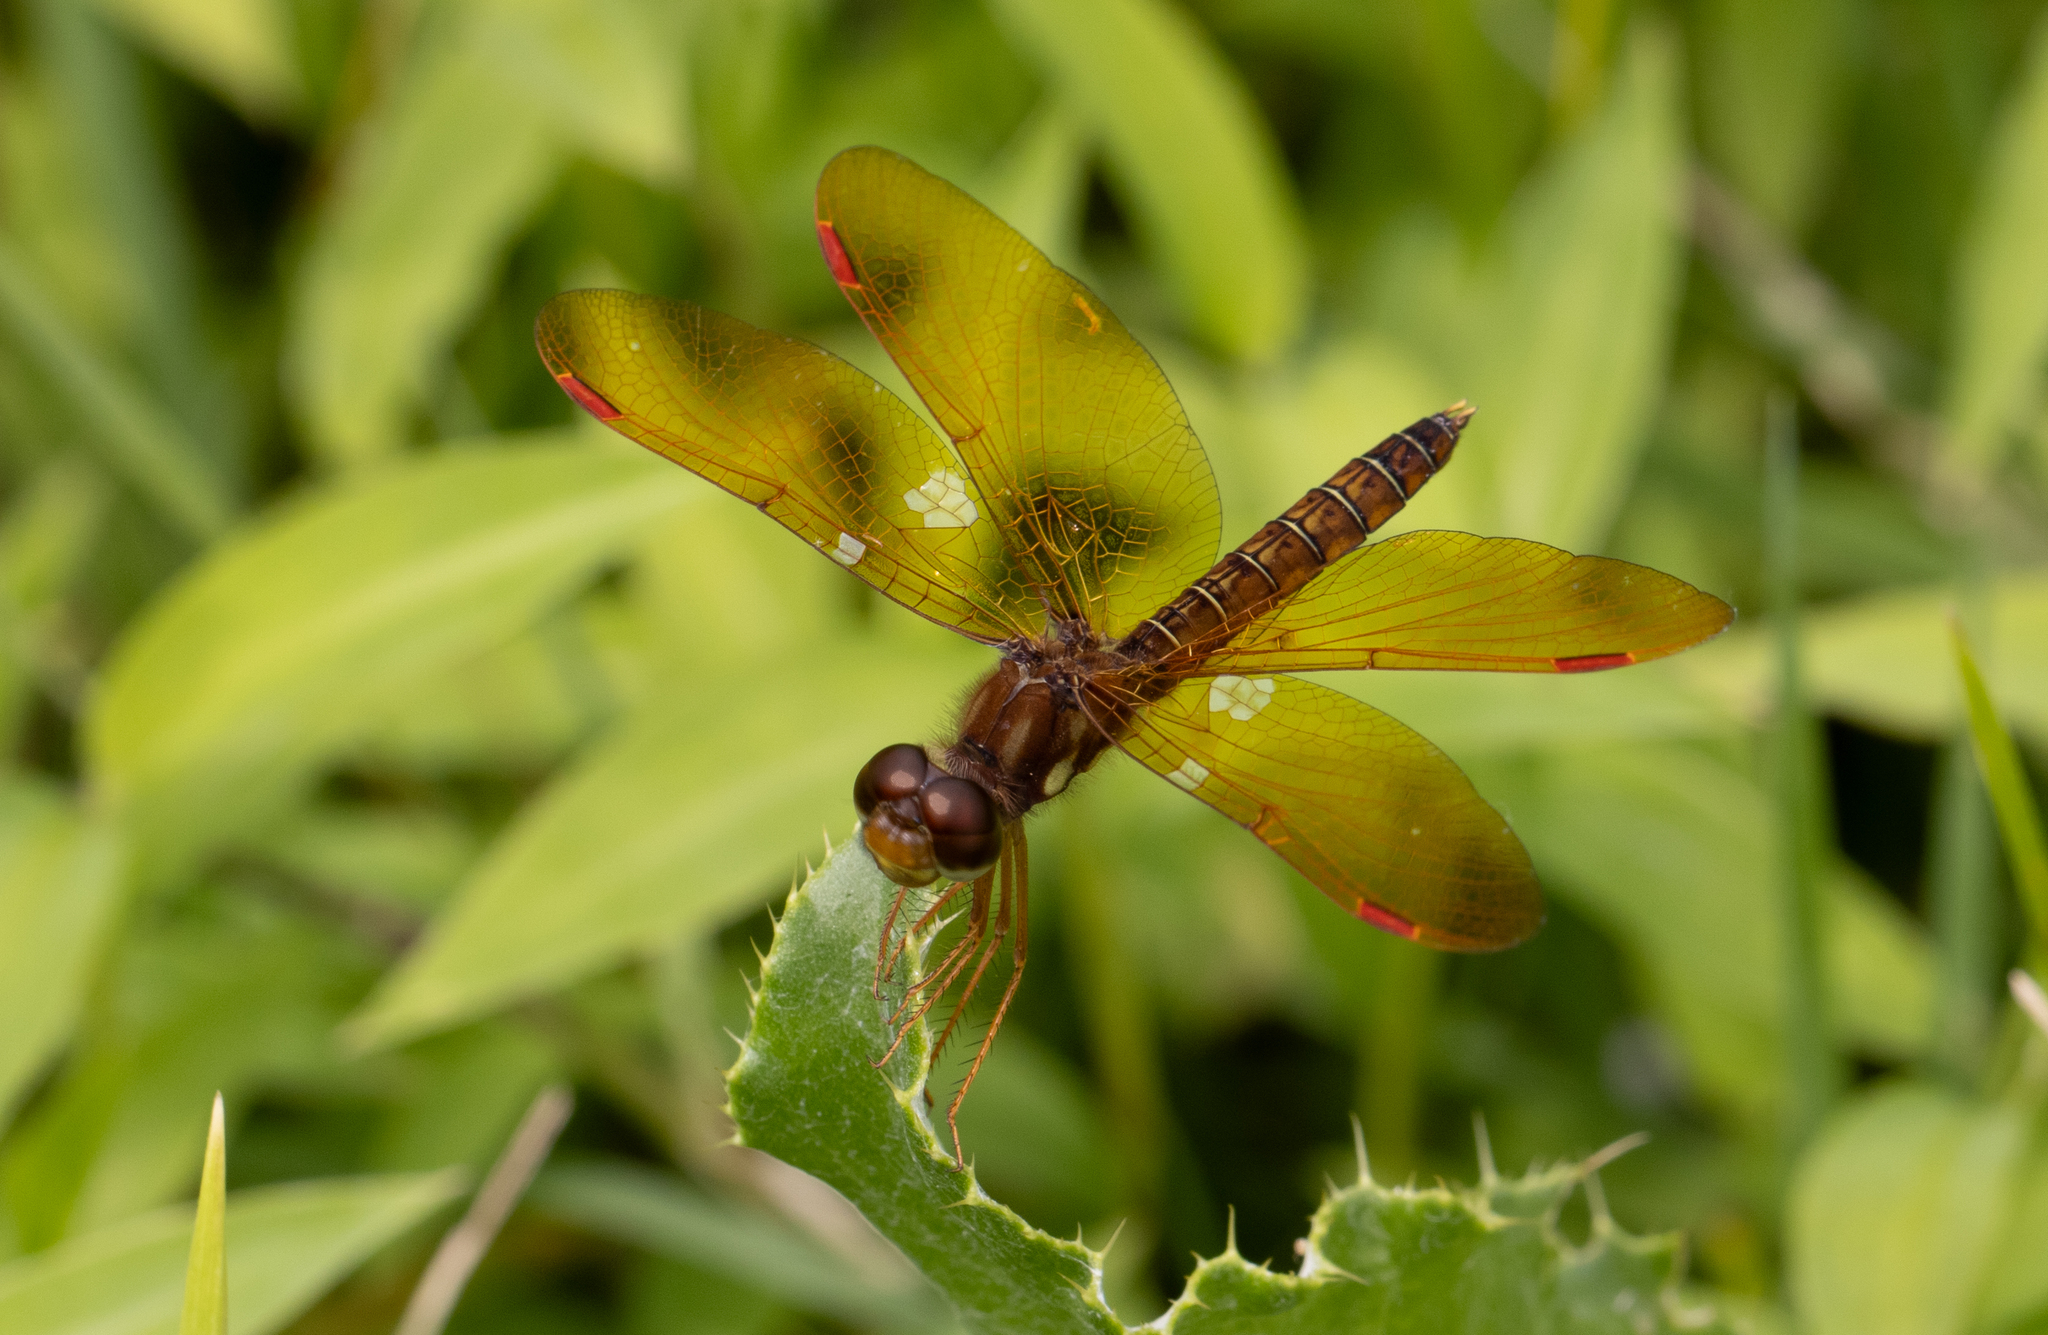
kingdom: Animalia
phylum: Arthropoda
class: Insecta
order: Odonata
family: Libellulidae
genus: Perithemis
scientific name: Perithemis tenera
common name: Eastern amberwing
